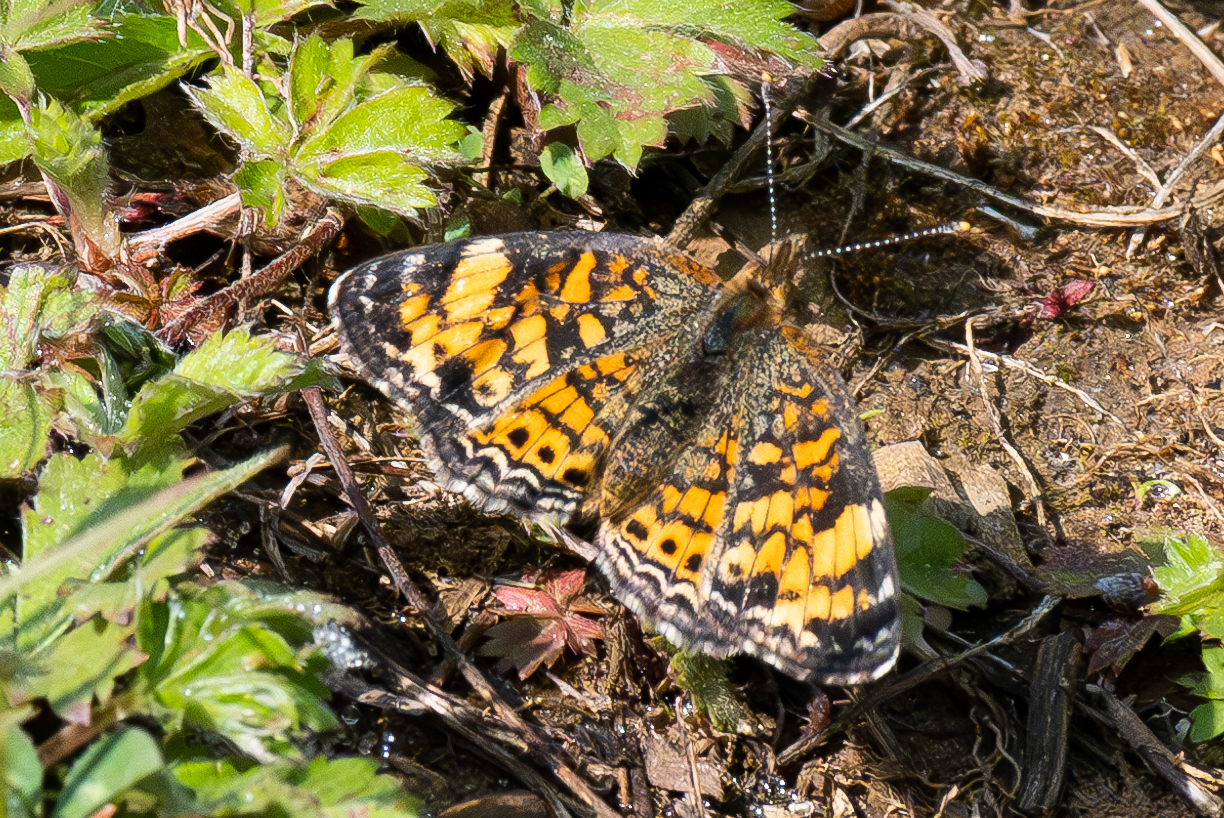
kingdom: Animalia
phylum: Arthropoda
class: Insecta
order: Lepidoptera
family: Nymphalidae
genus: Phyciodes
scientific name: Phyciodes tharos
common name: Pearl crescent
